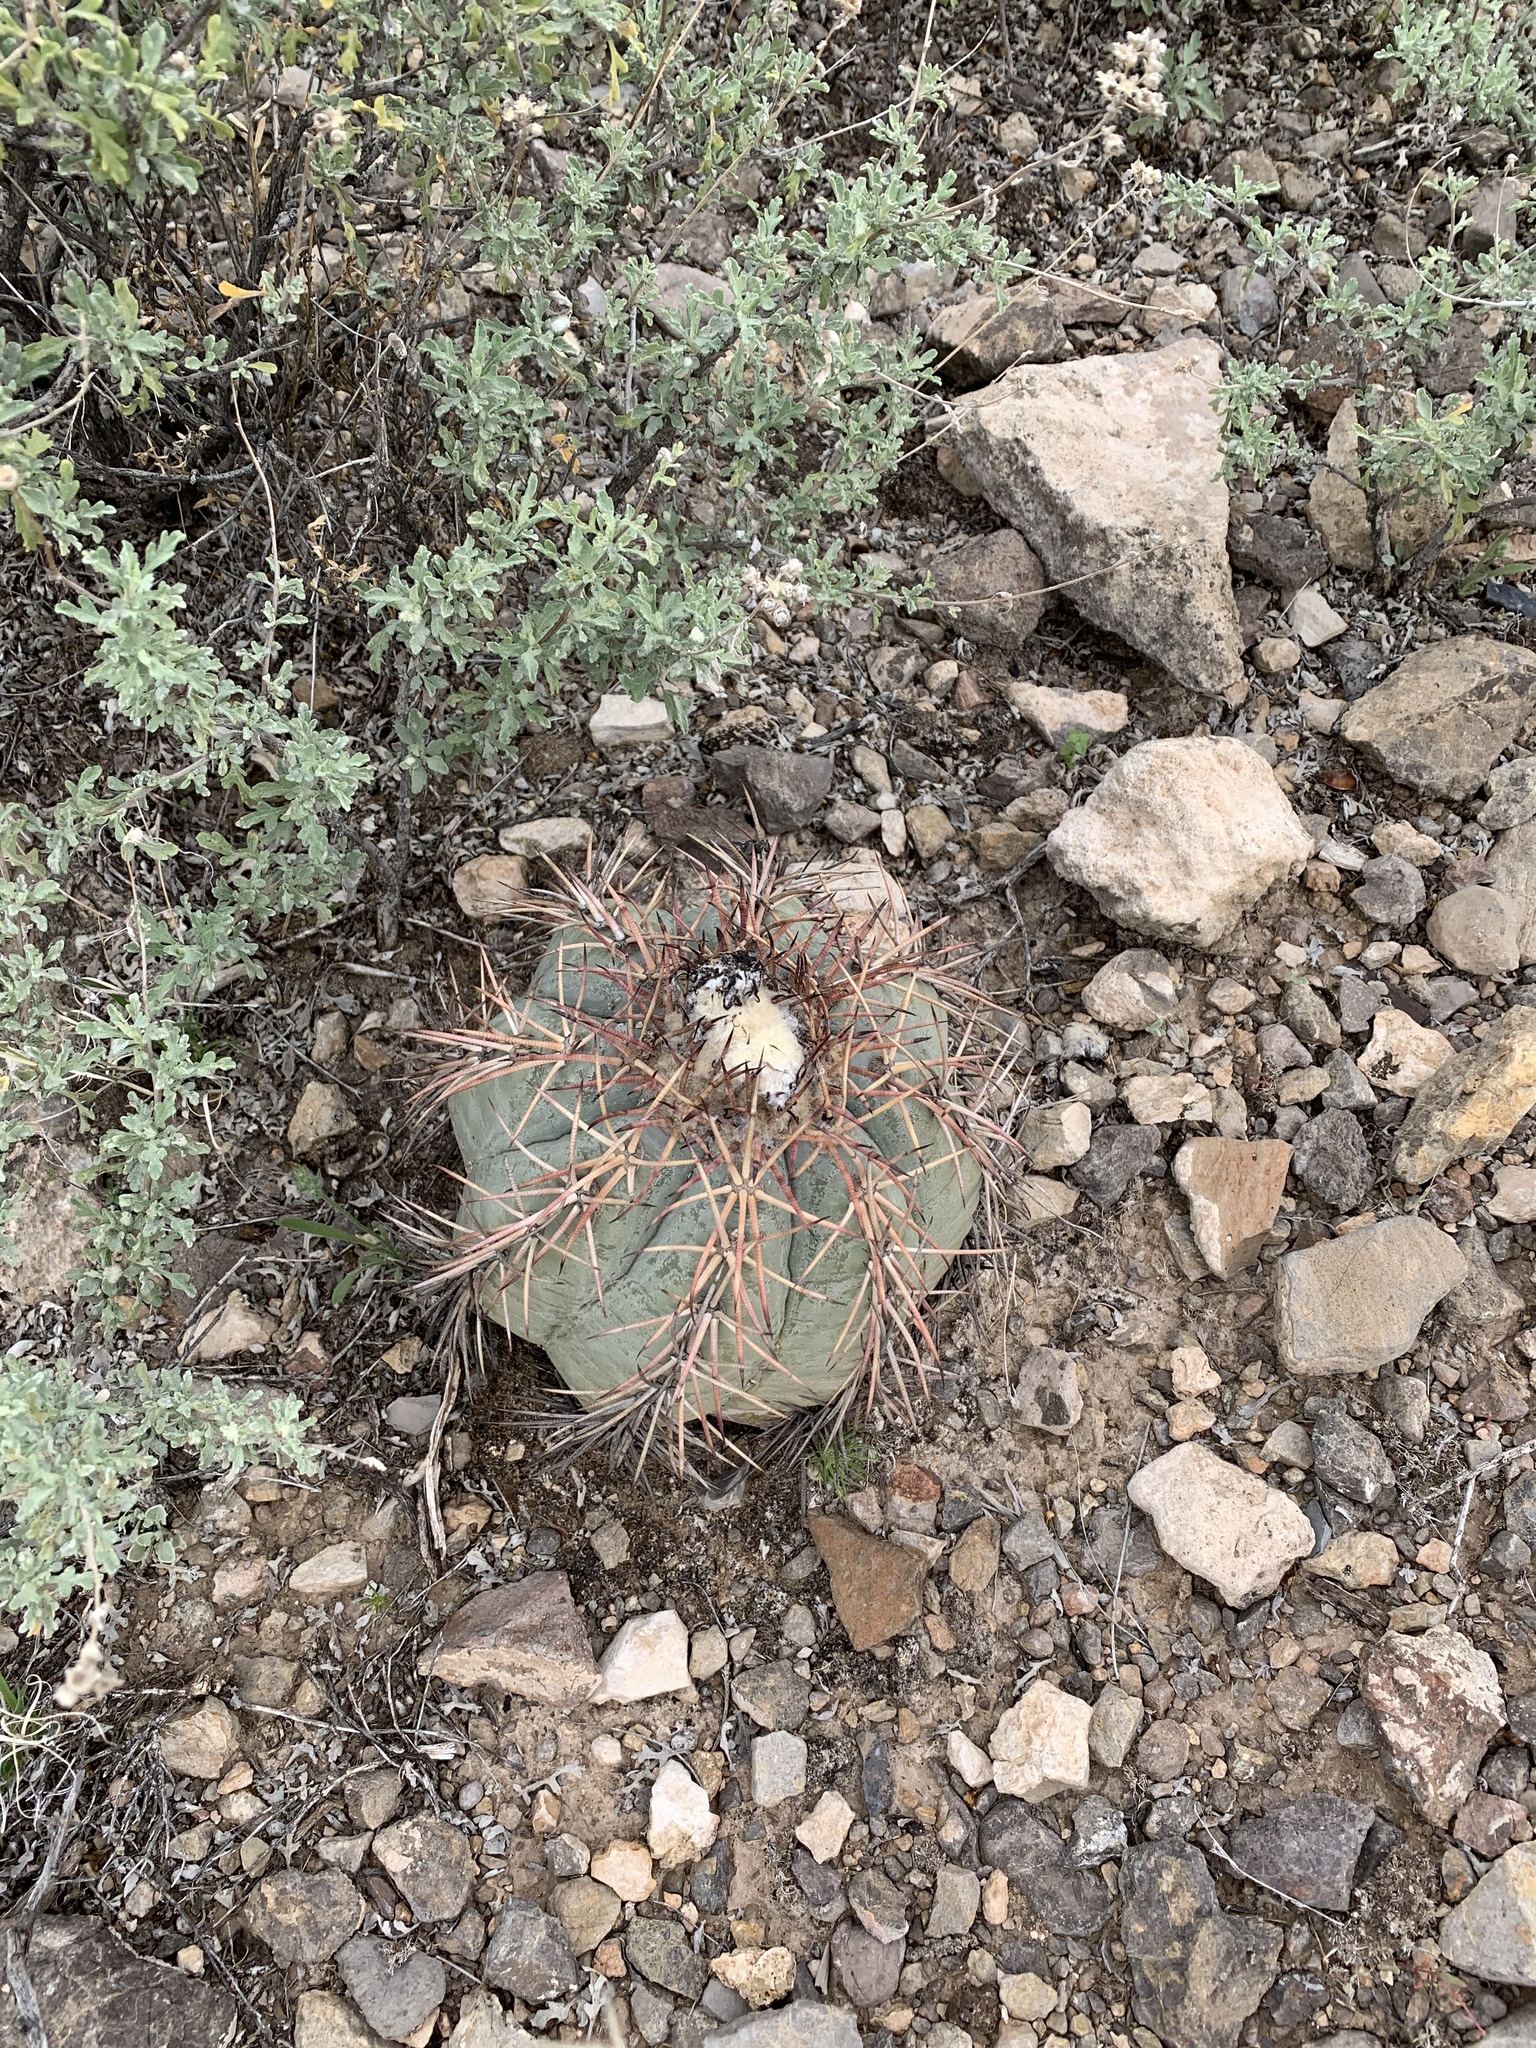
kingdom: Plantae
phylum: Tracheophyta
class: Magnoliopsida
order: Caryophyllales
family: Cactaceae
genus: Echinocactus
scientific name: Echinocactus horizonthalonius
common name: Devilshead
